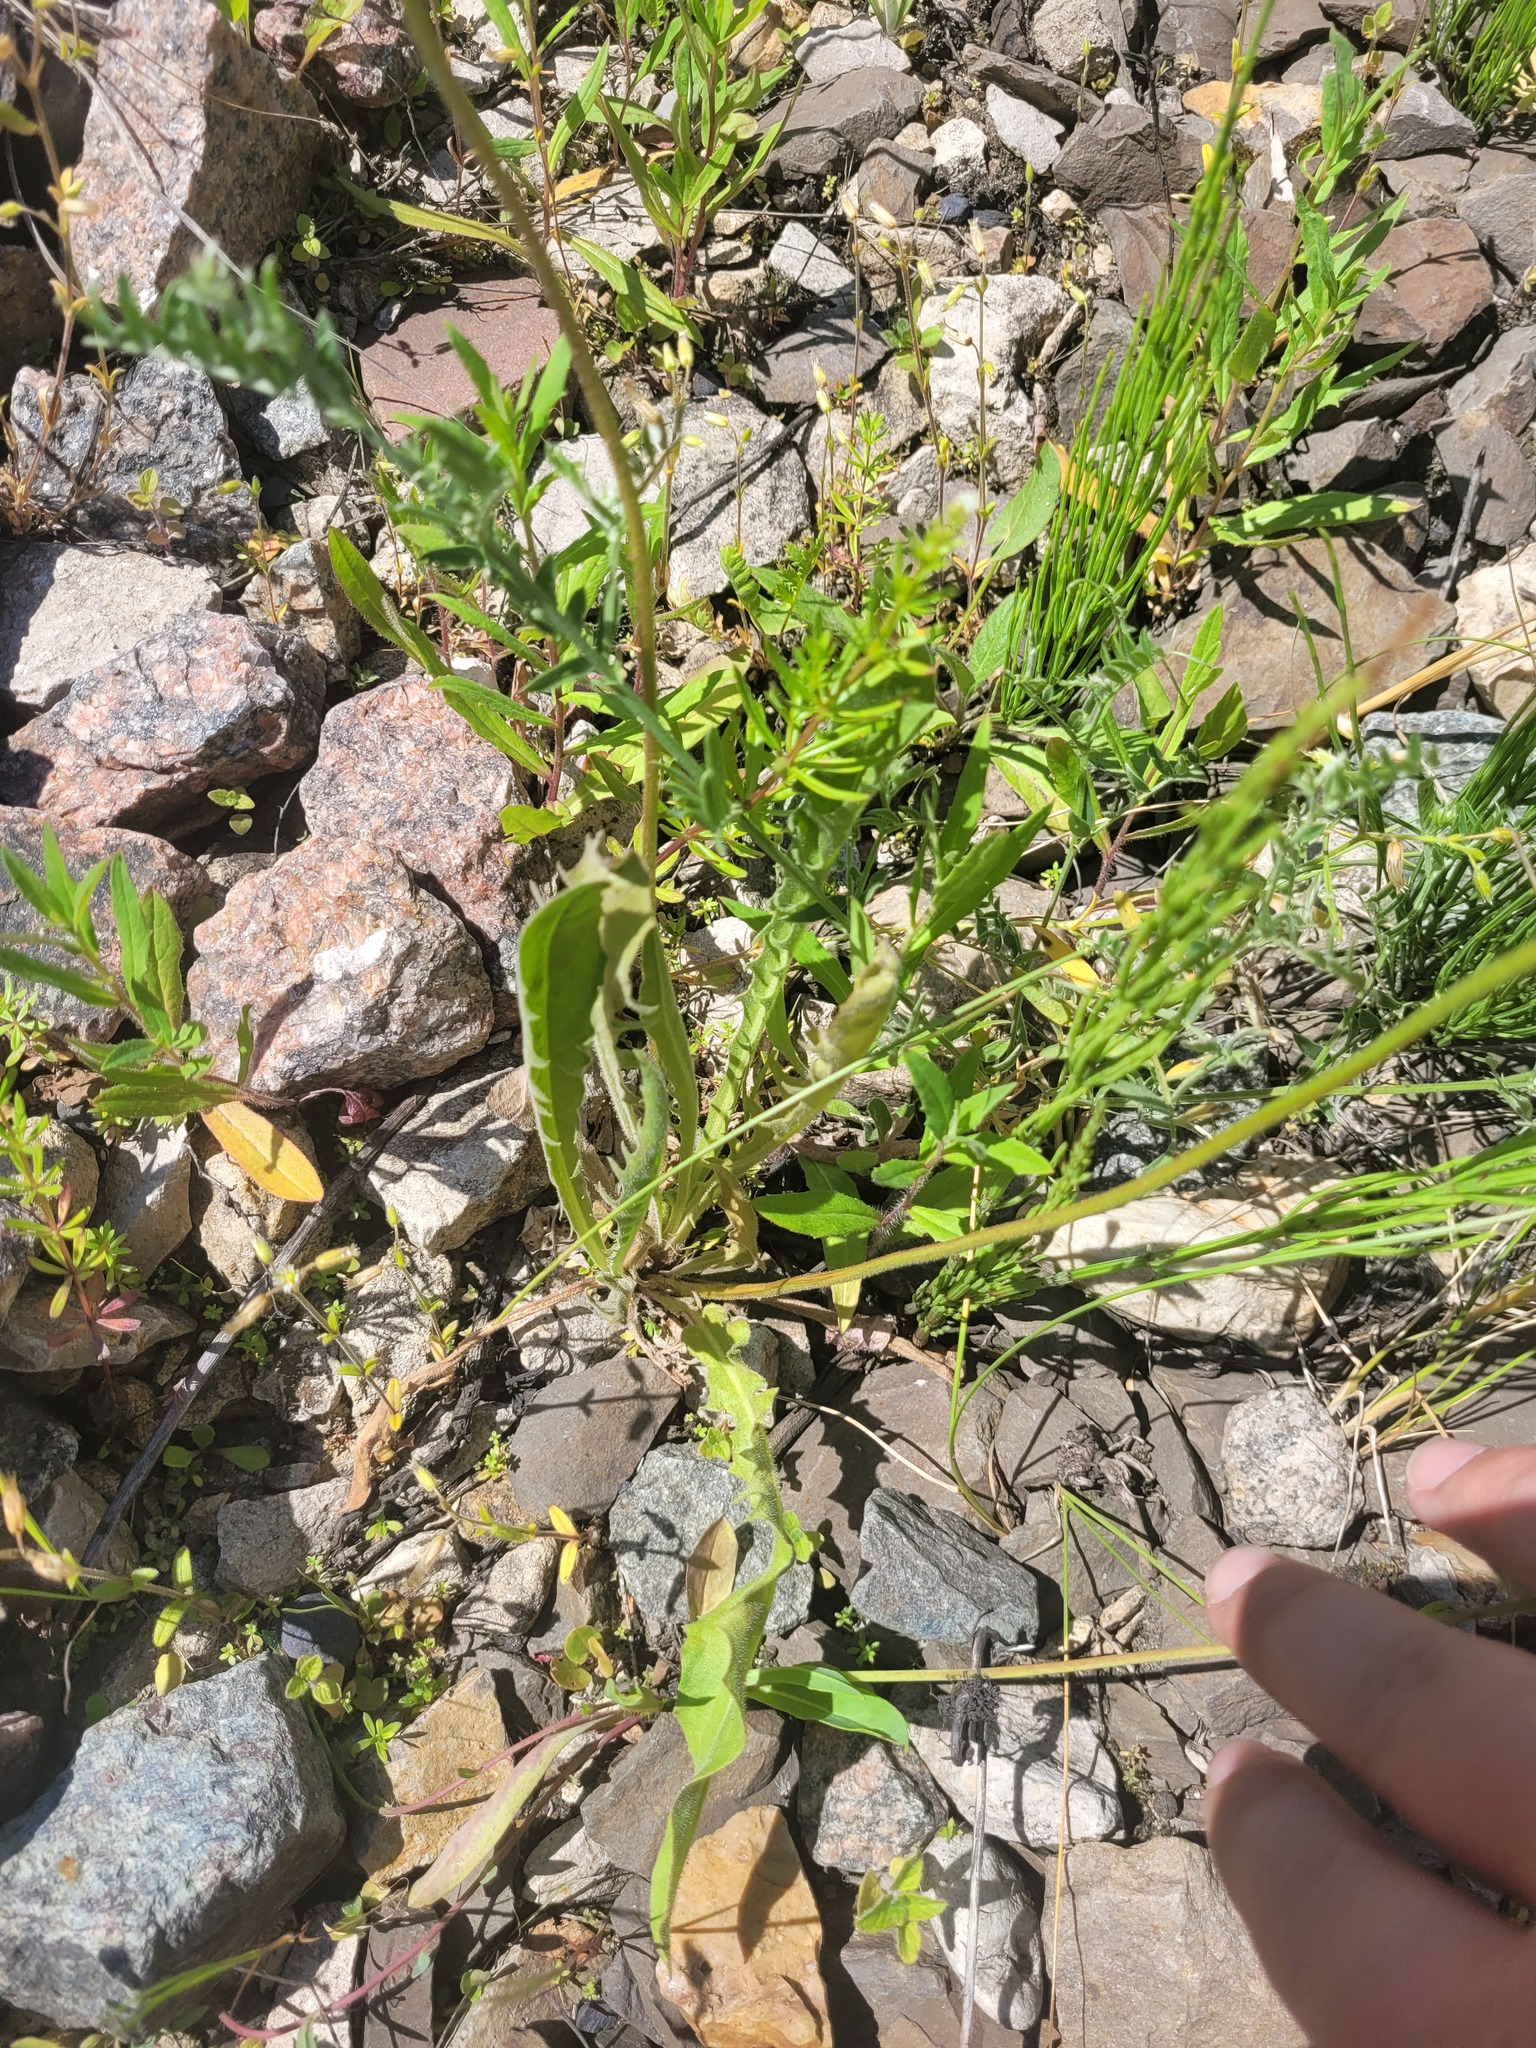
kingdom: Plantae
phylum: Tracheophyta
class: Magnoliopsida
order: Asterales
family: Asteraceae
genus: Leontodon
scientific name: Leontodon hispidus
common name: Rough hawkbit
